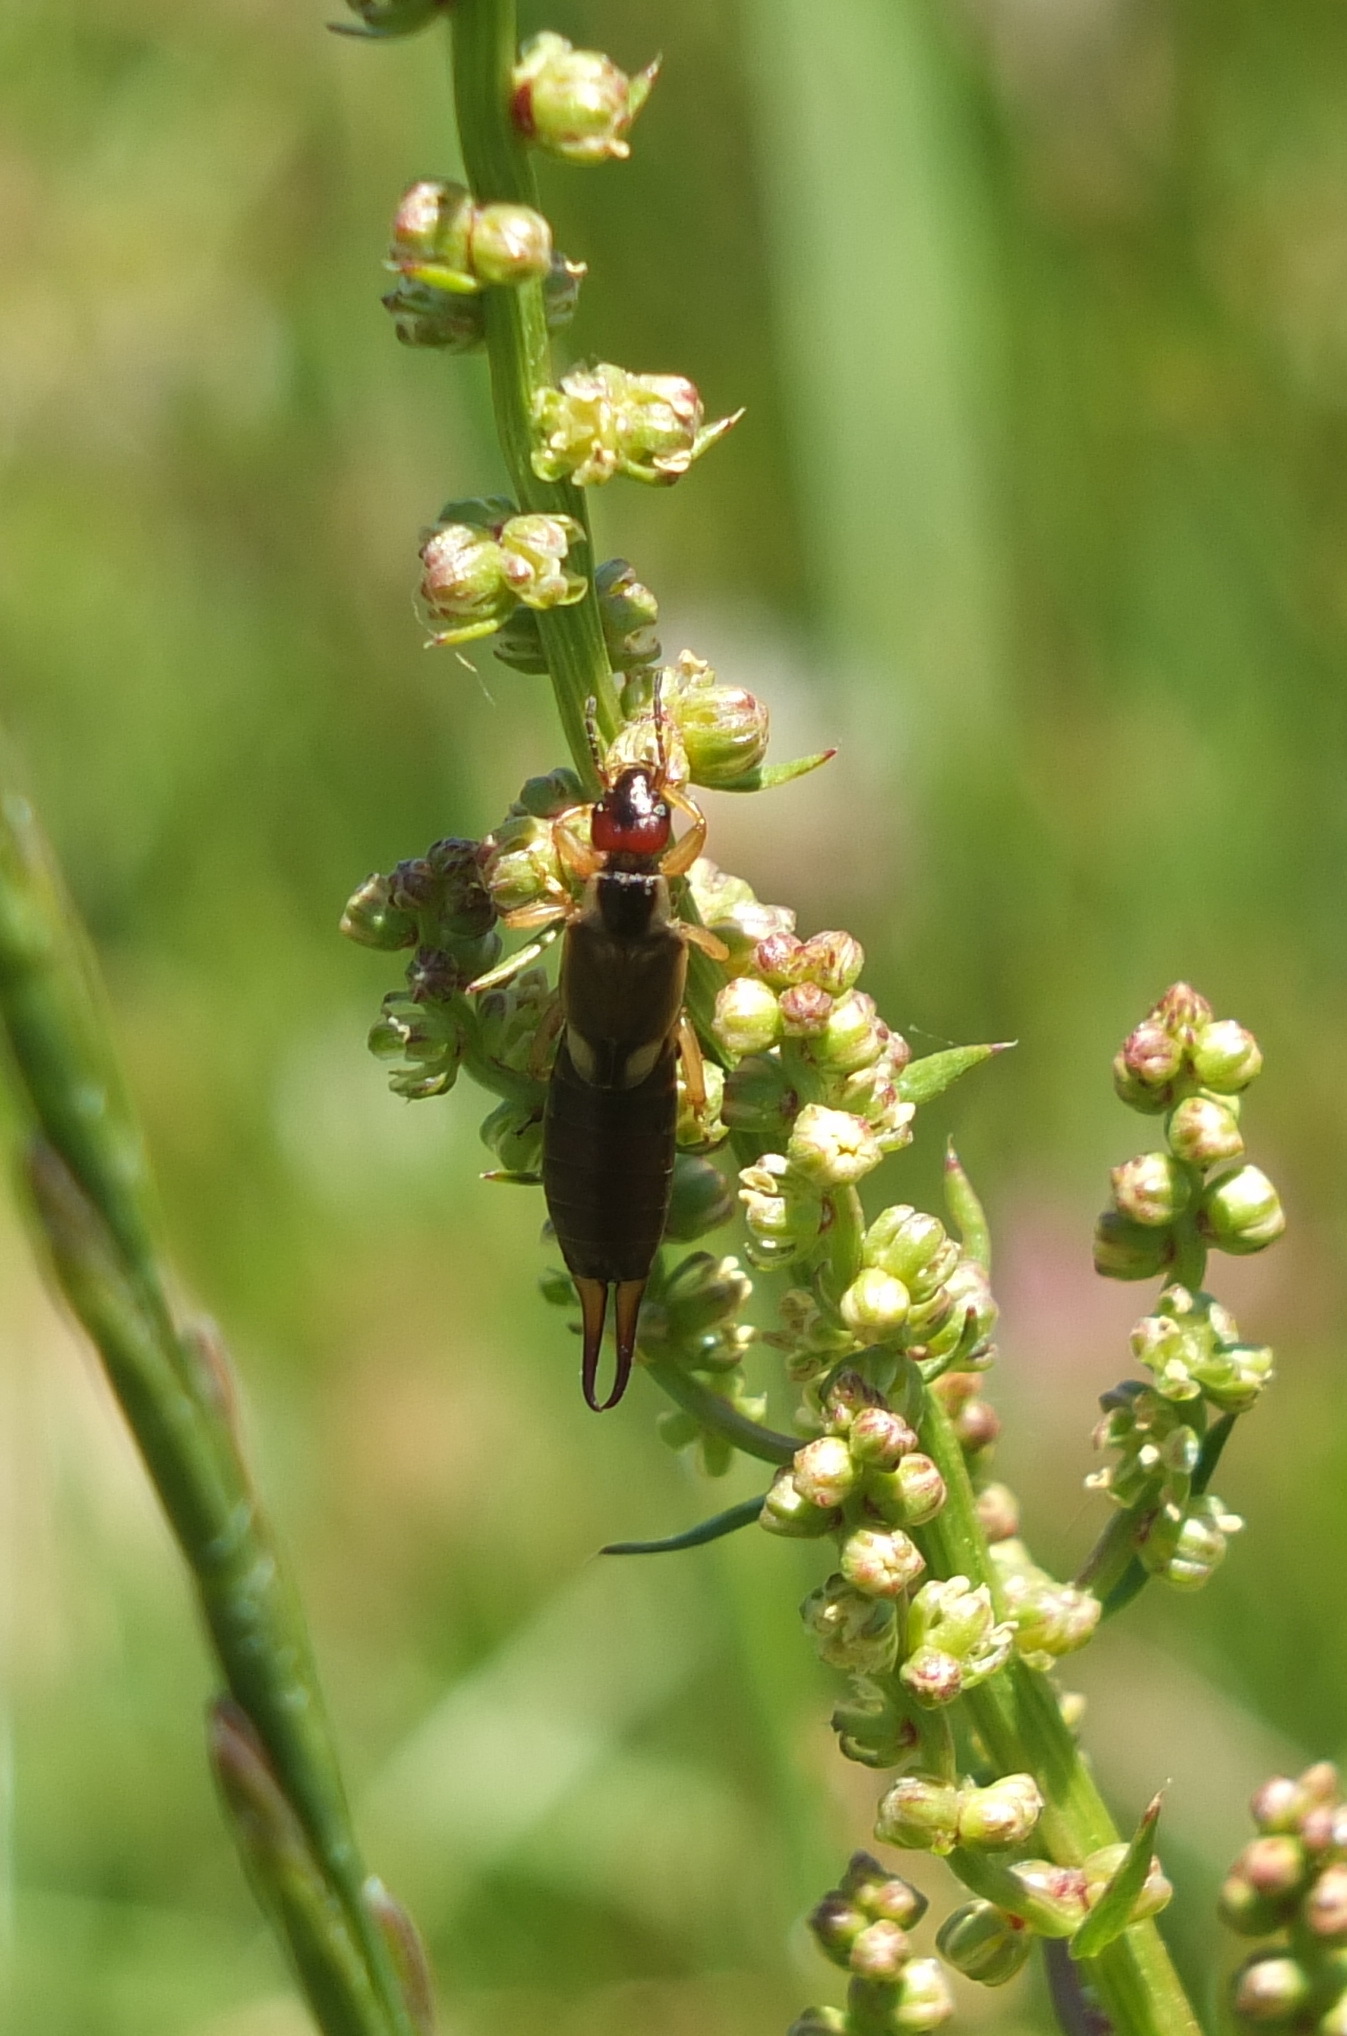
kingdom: Animalia
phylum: Arthropoda
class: Insecta
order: Dermaptera
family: Forficulidae
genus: Forficula
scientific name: Forficula
